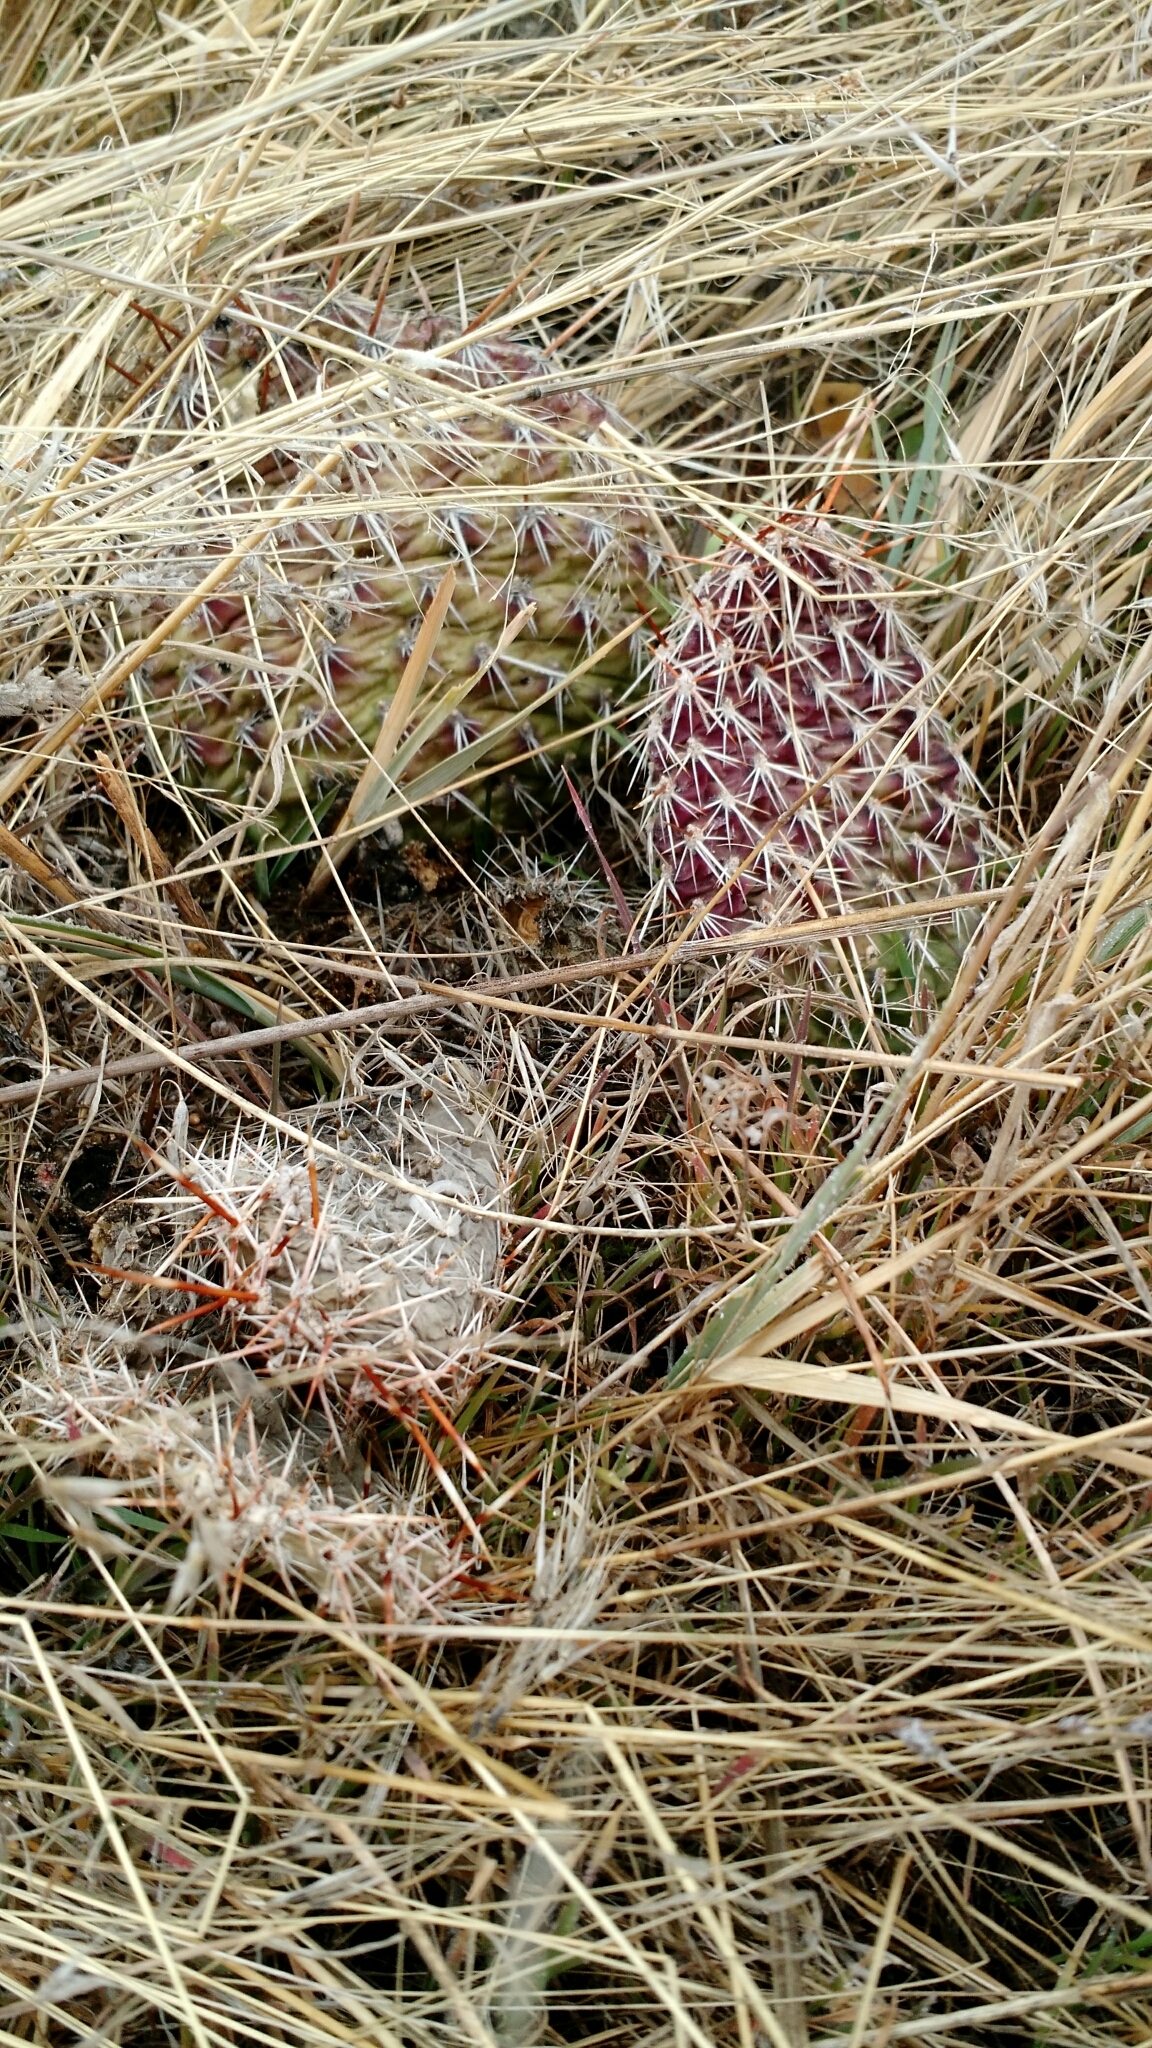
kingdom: Plantae
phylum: Tracheophyta
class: Magnoliopsida
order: Caryophyllales
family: Cactaceae
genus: Opuntia
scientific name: Opuntia polyacantha
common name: Plains prickly-pear
